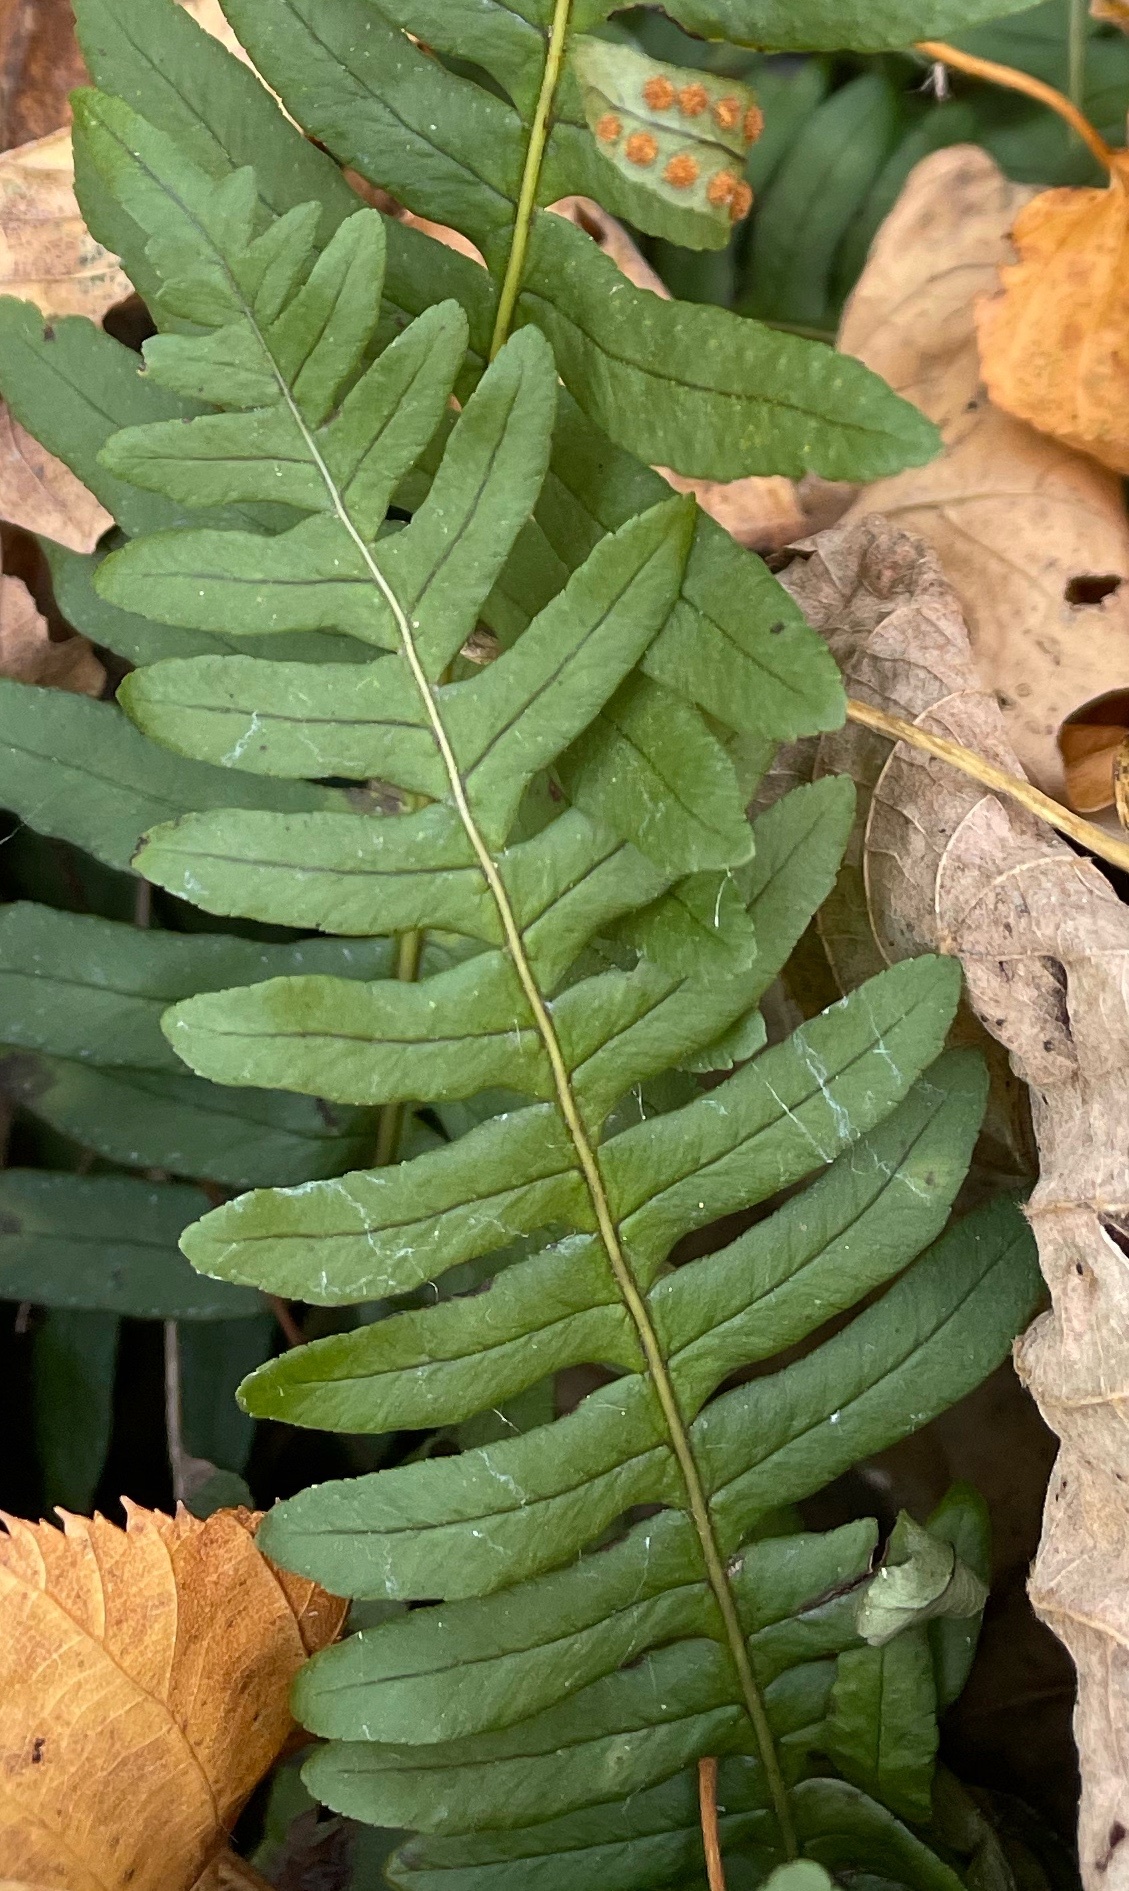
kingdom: Plantae
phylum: Tracheophyta
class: Polypodiopsida
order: Polypodiales
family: Polypodiaceae
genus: Polypodium
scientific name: Polypodium appalachianum
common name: Appalachian polypody
